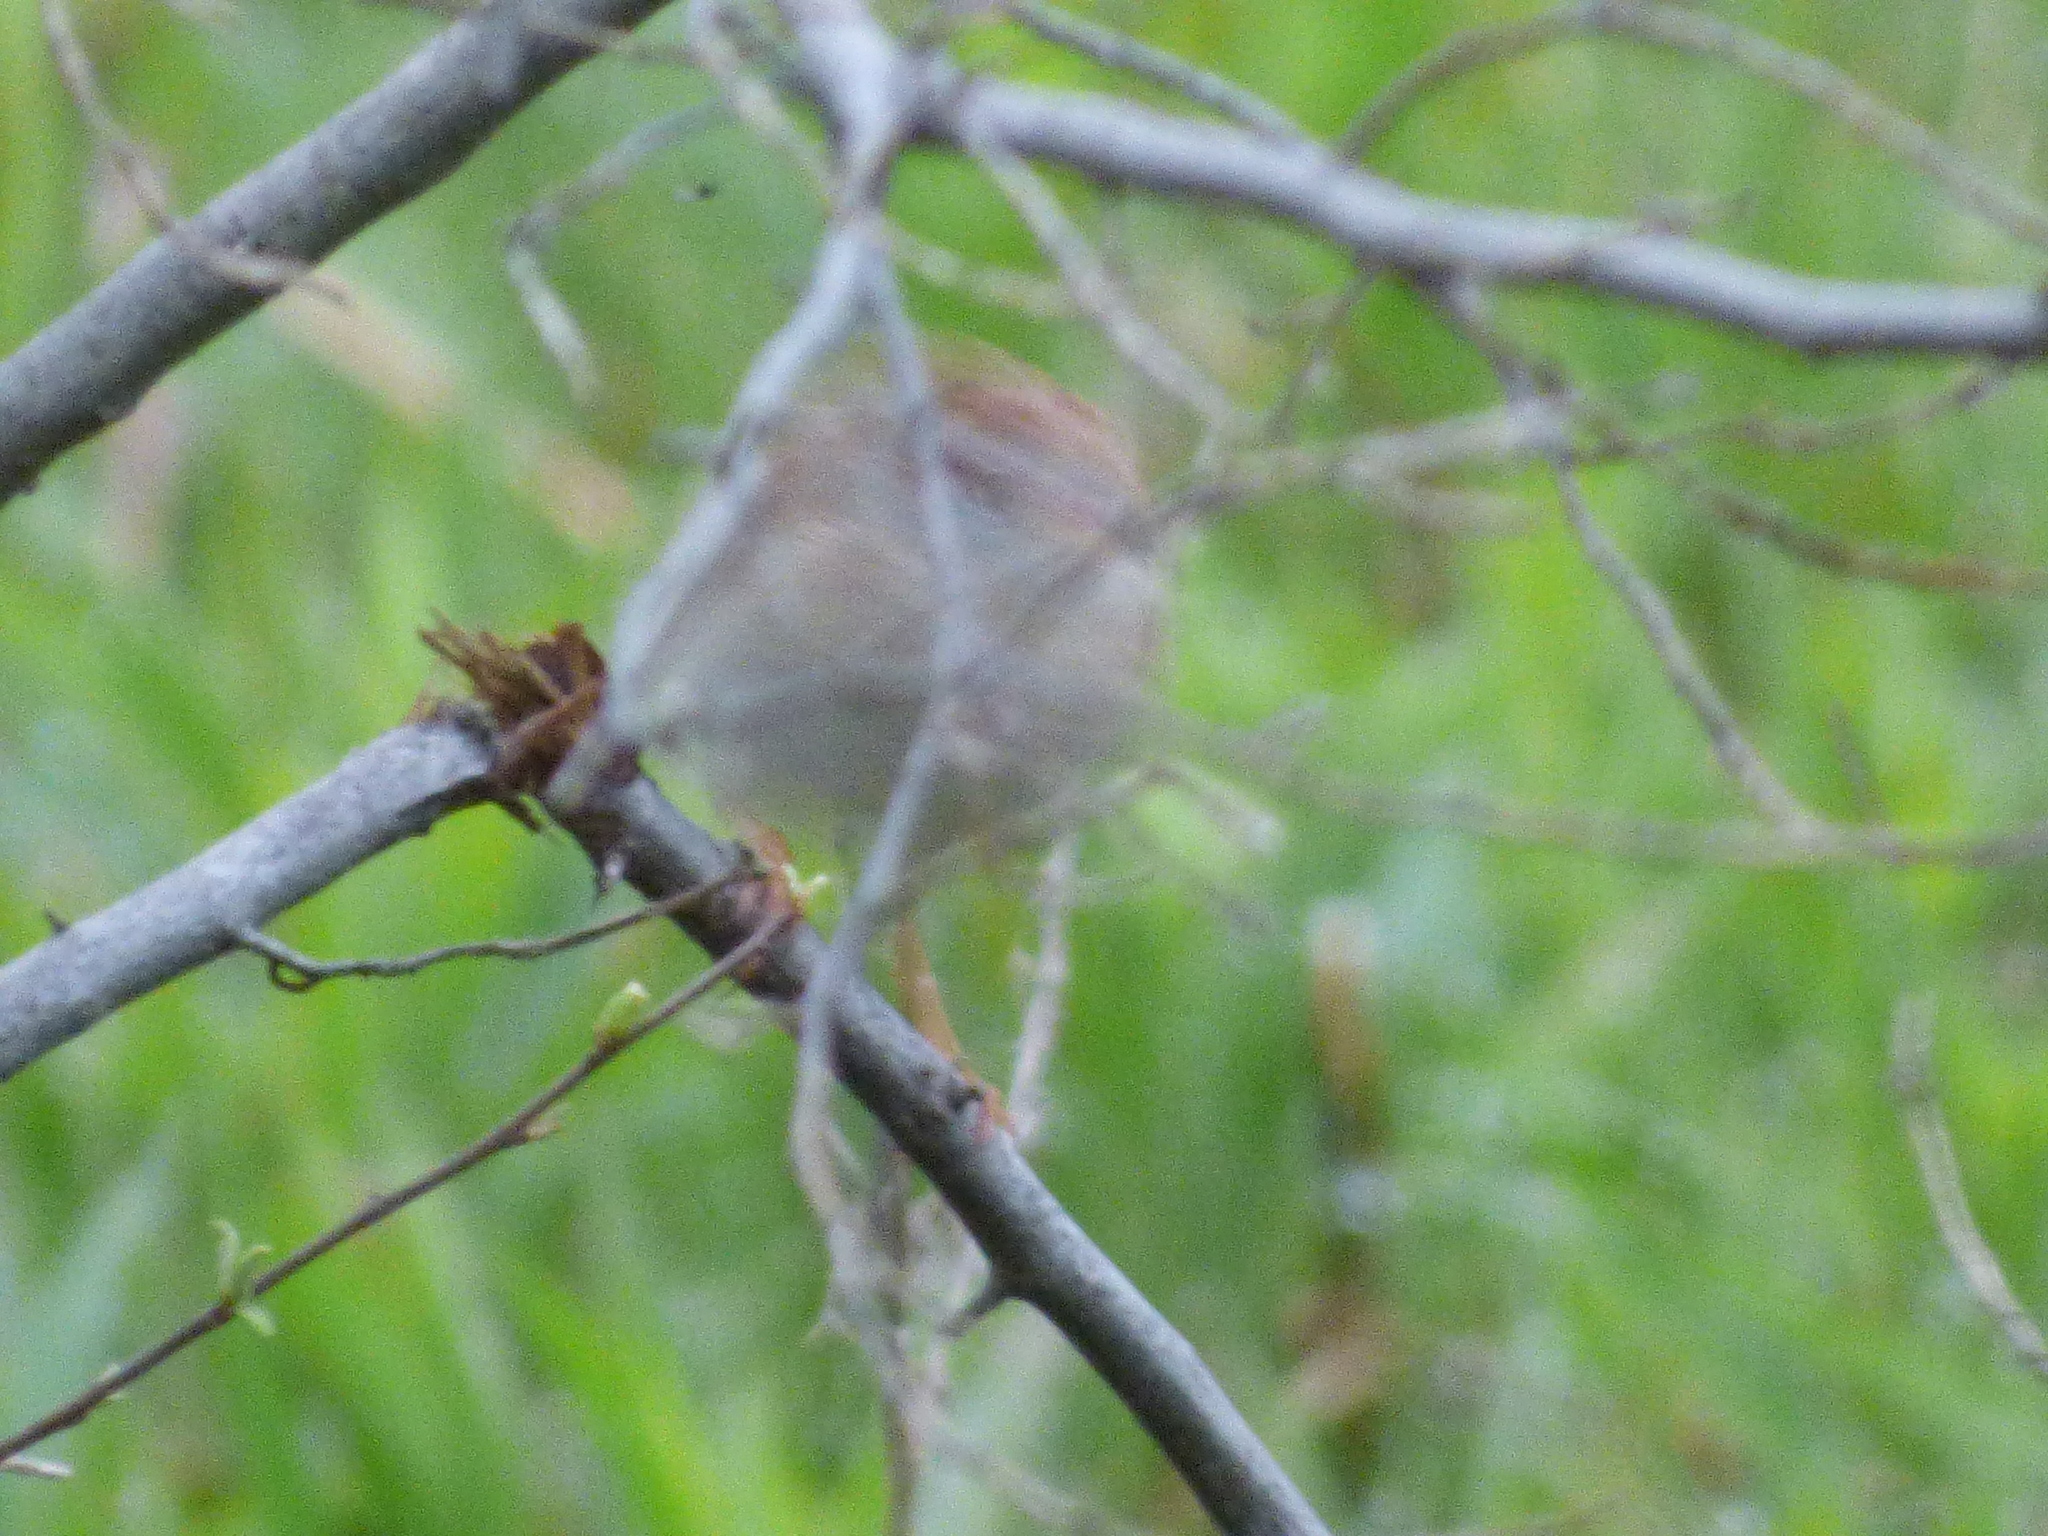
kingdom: Animalia
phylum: Chordata
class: Aves
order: Passeriformes
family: Passerellidae
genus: Spizella
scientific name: Spizella pusilla
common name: Field sparrow
